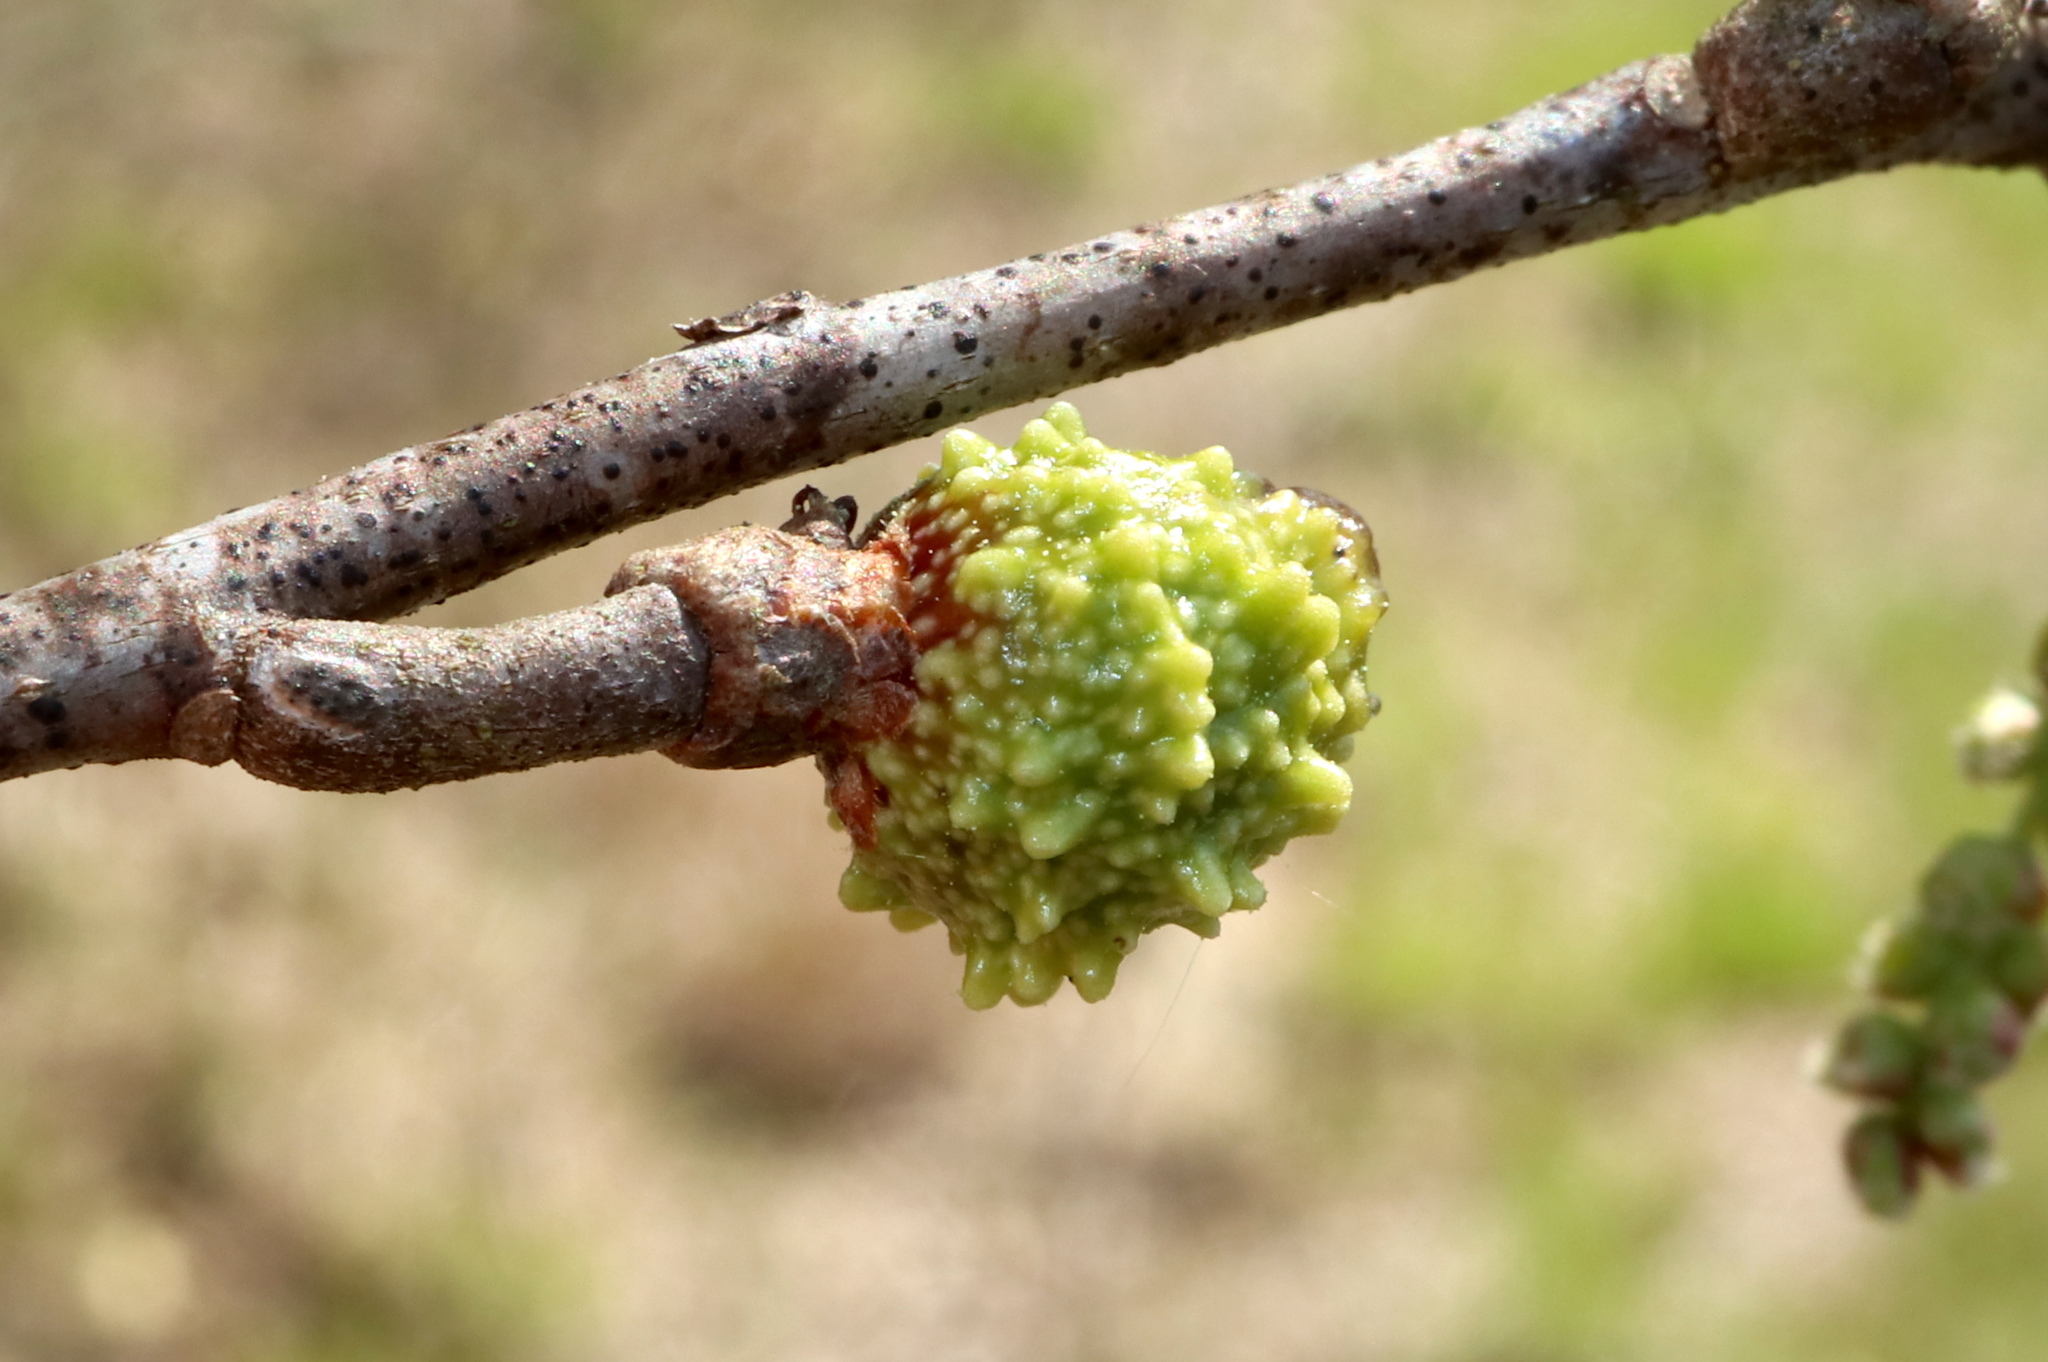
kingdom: Animalia
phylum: Arthropoda
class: Insecta
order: Hymenoptera
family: Cynipidae
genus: Callirhytis
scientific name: Callirhytis
